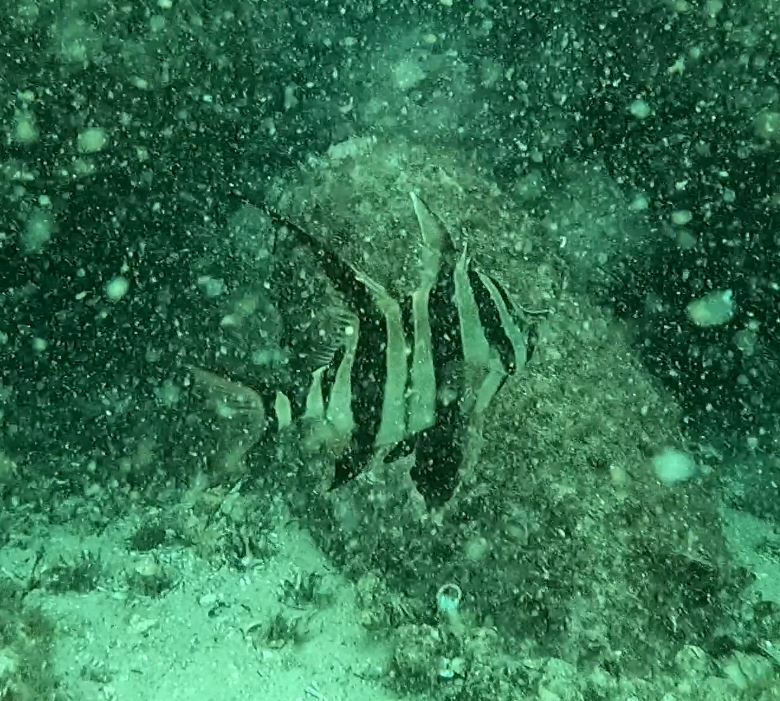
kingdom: Animalia
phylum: Chordata
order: Perciformes
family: Enoplosidae
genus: Enoplosus
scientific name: Enoplosus armatus
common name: Old wife
